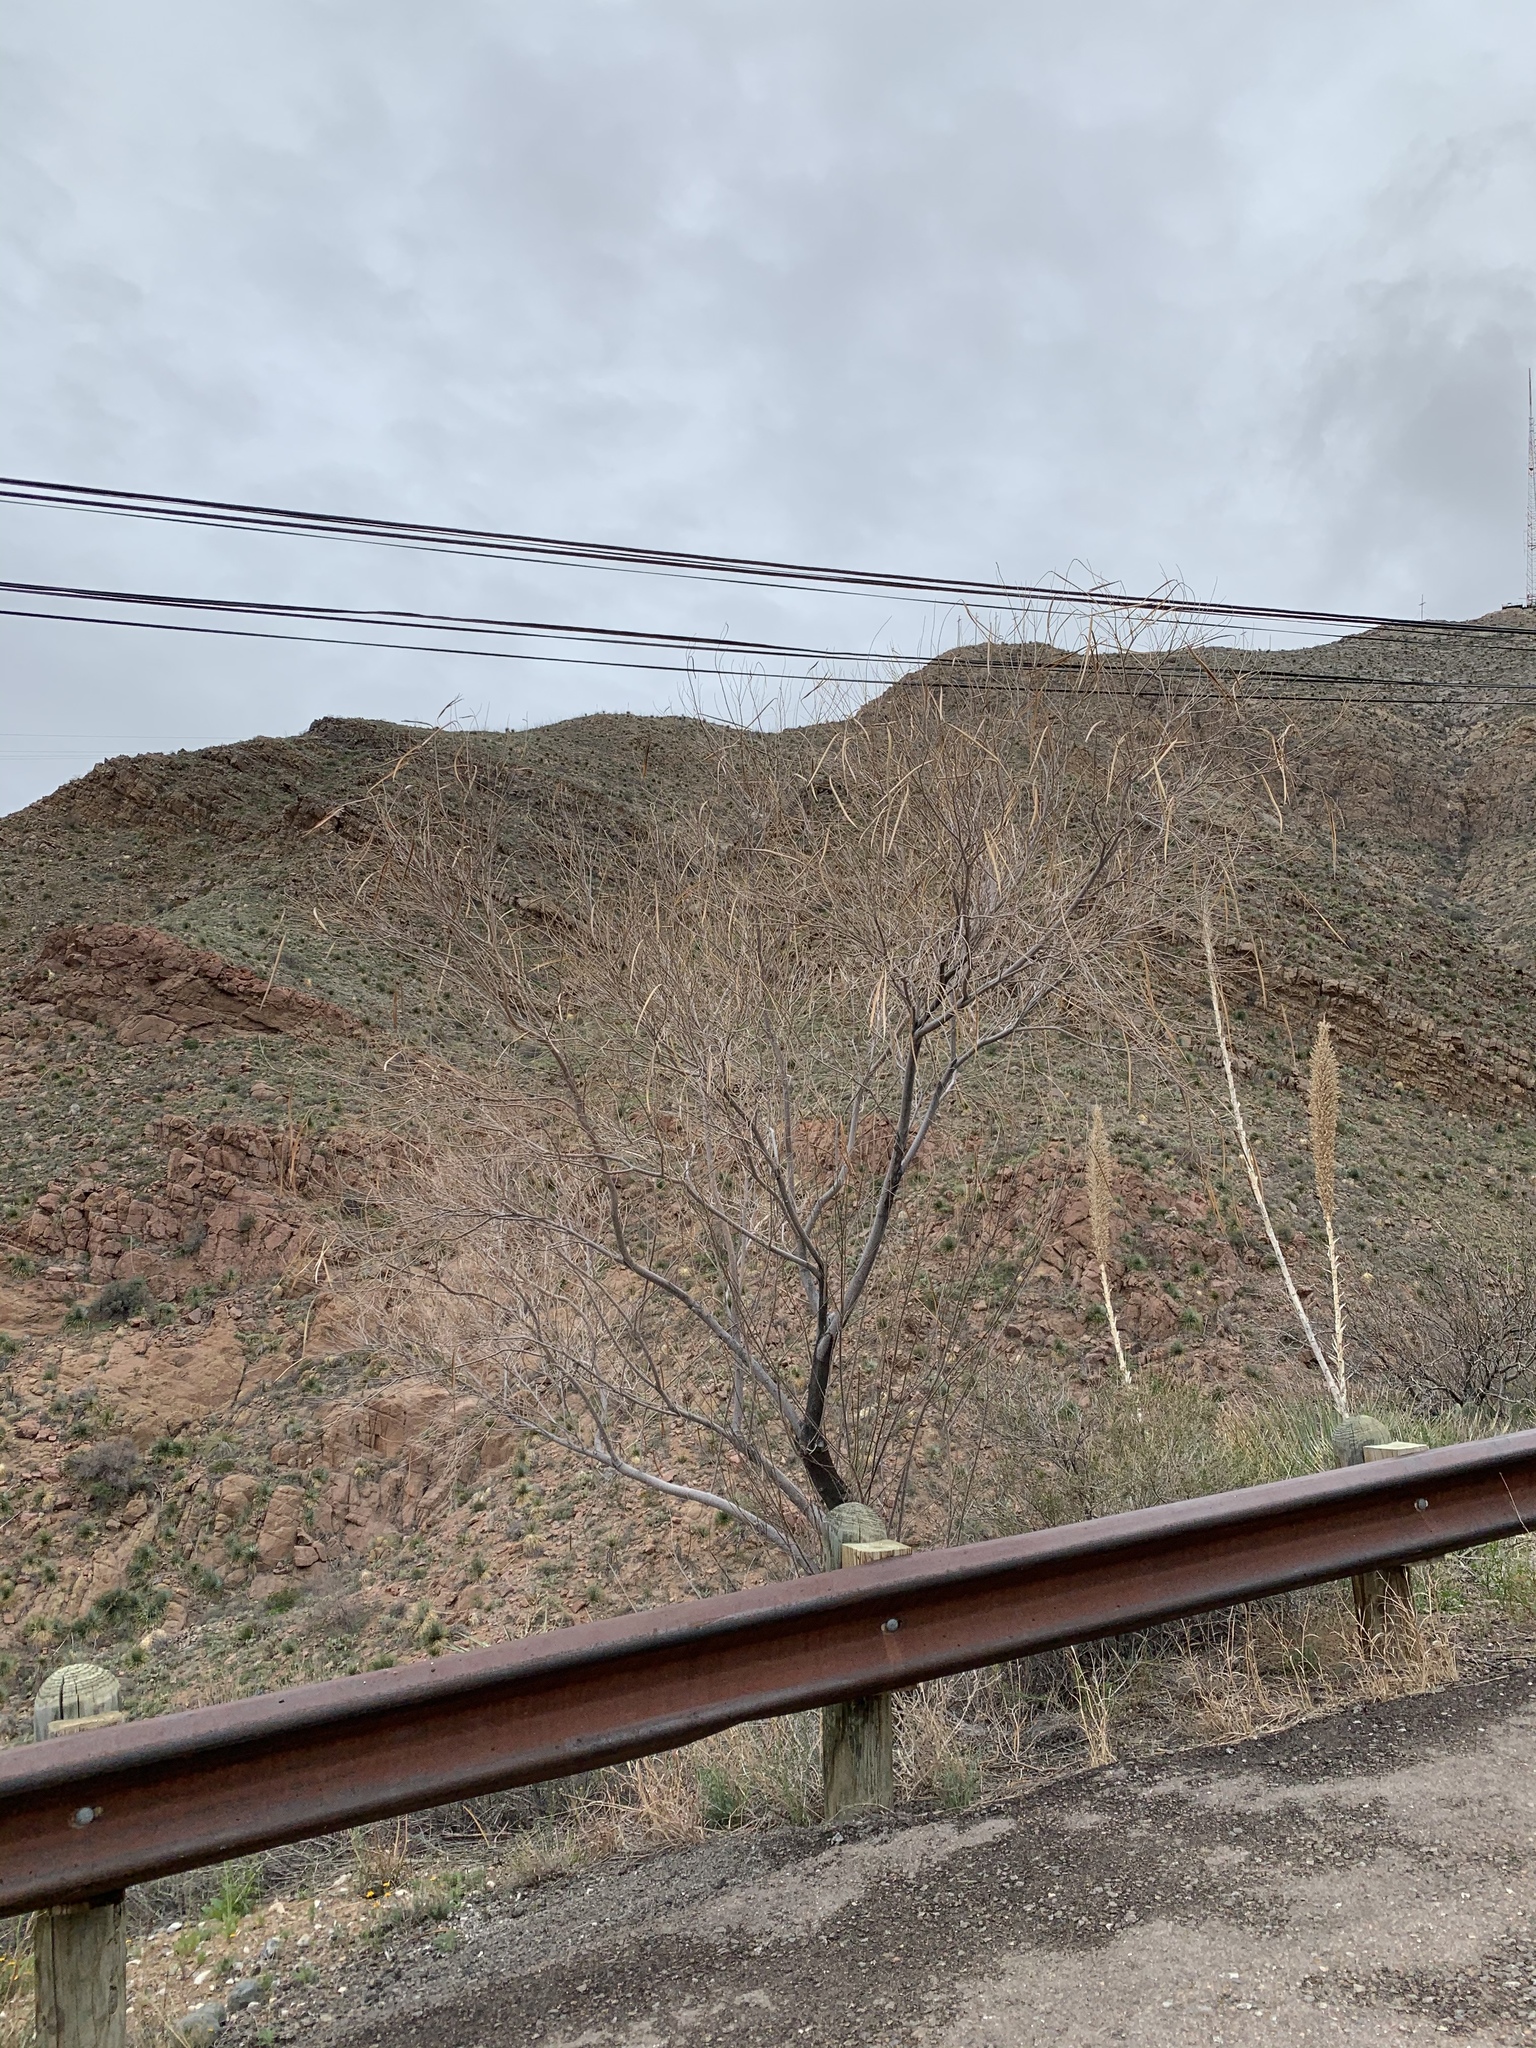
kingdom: Plantae
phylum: Tracheophyta
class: Magnoliopsida
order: Lamiales
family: Bignoniaceae
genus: Chilopsis
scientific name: Chilopsis linearis
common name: Desert-willow
